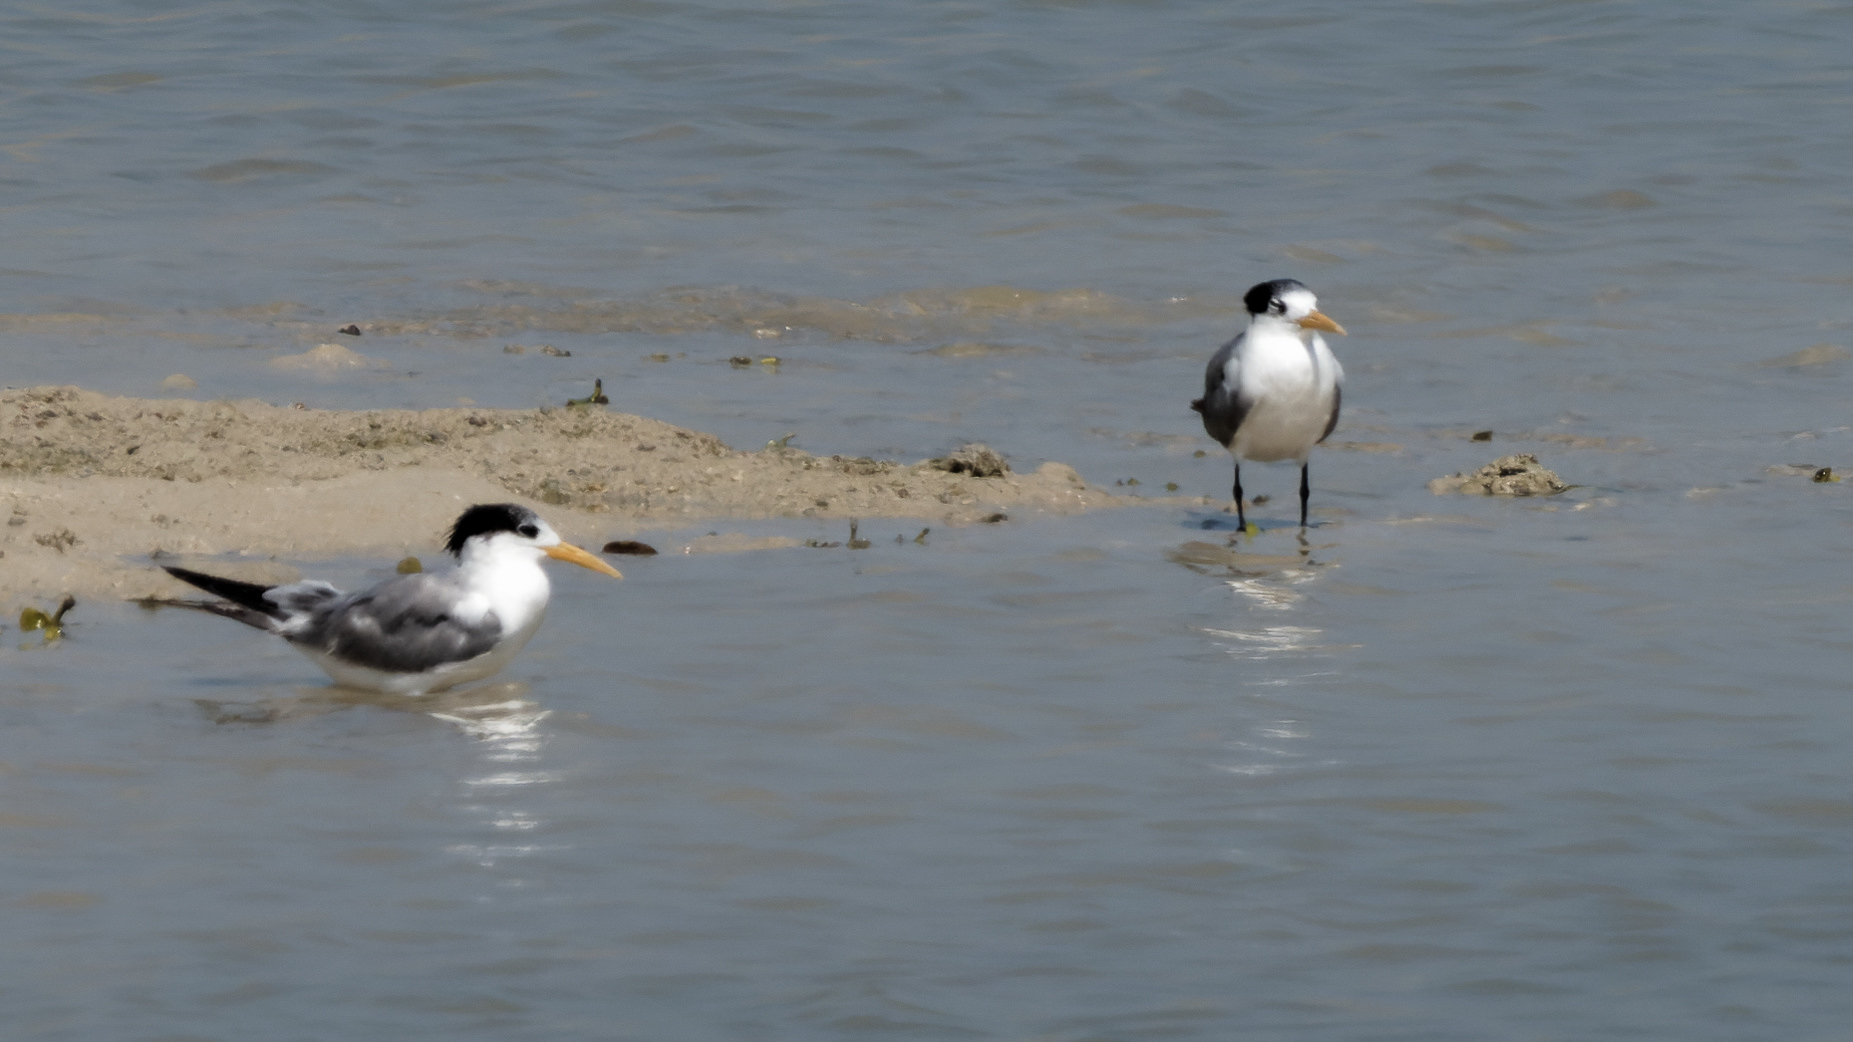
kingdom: Animalia
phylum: Chordata
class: Aves
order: Charadriiformes
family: Laridae
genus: Thalasseus
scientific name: Thalasseus bengalensis
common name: Lesser crested tern
